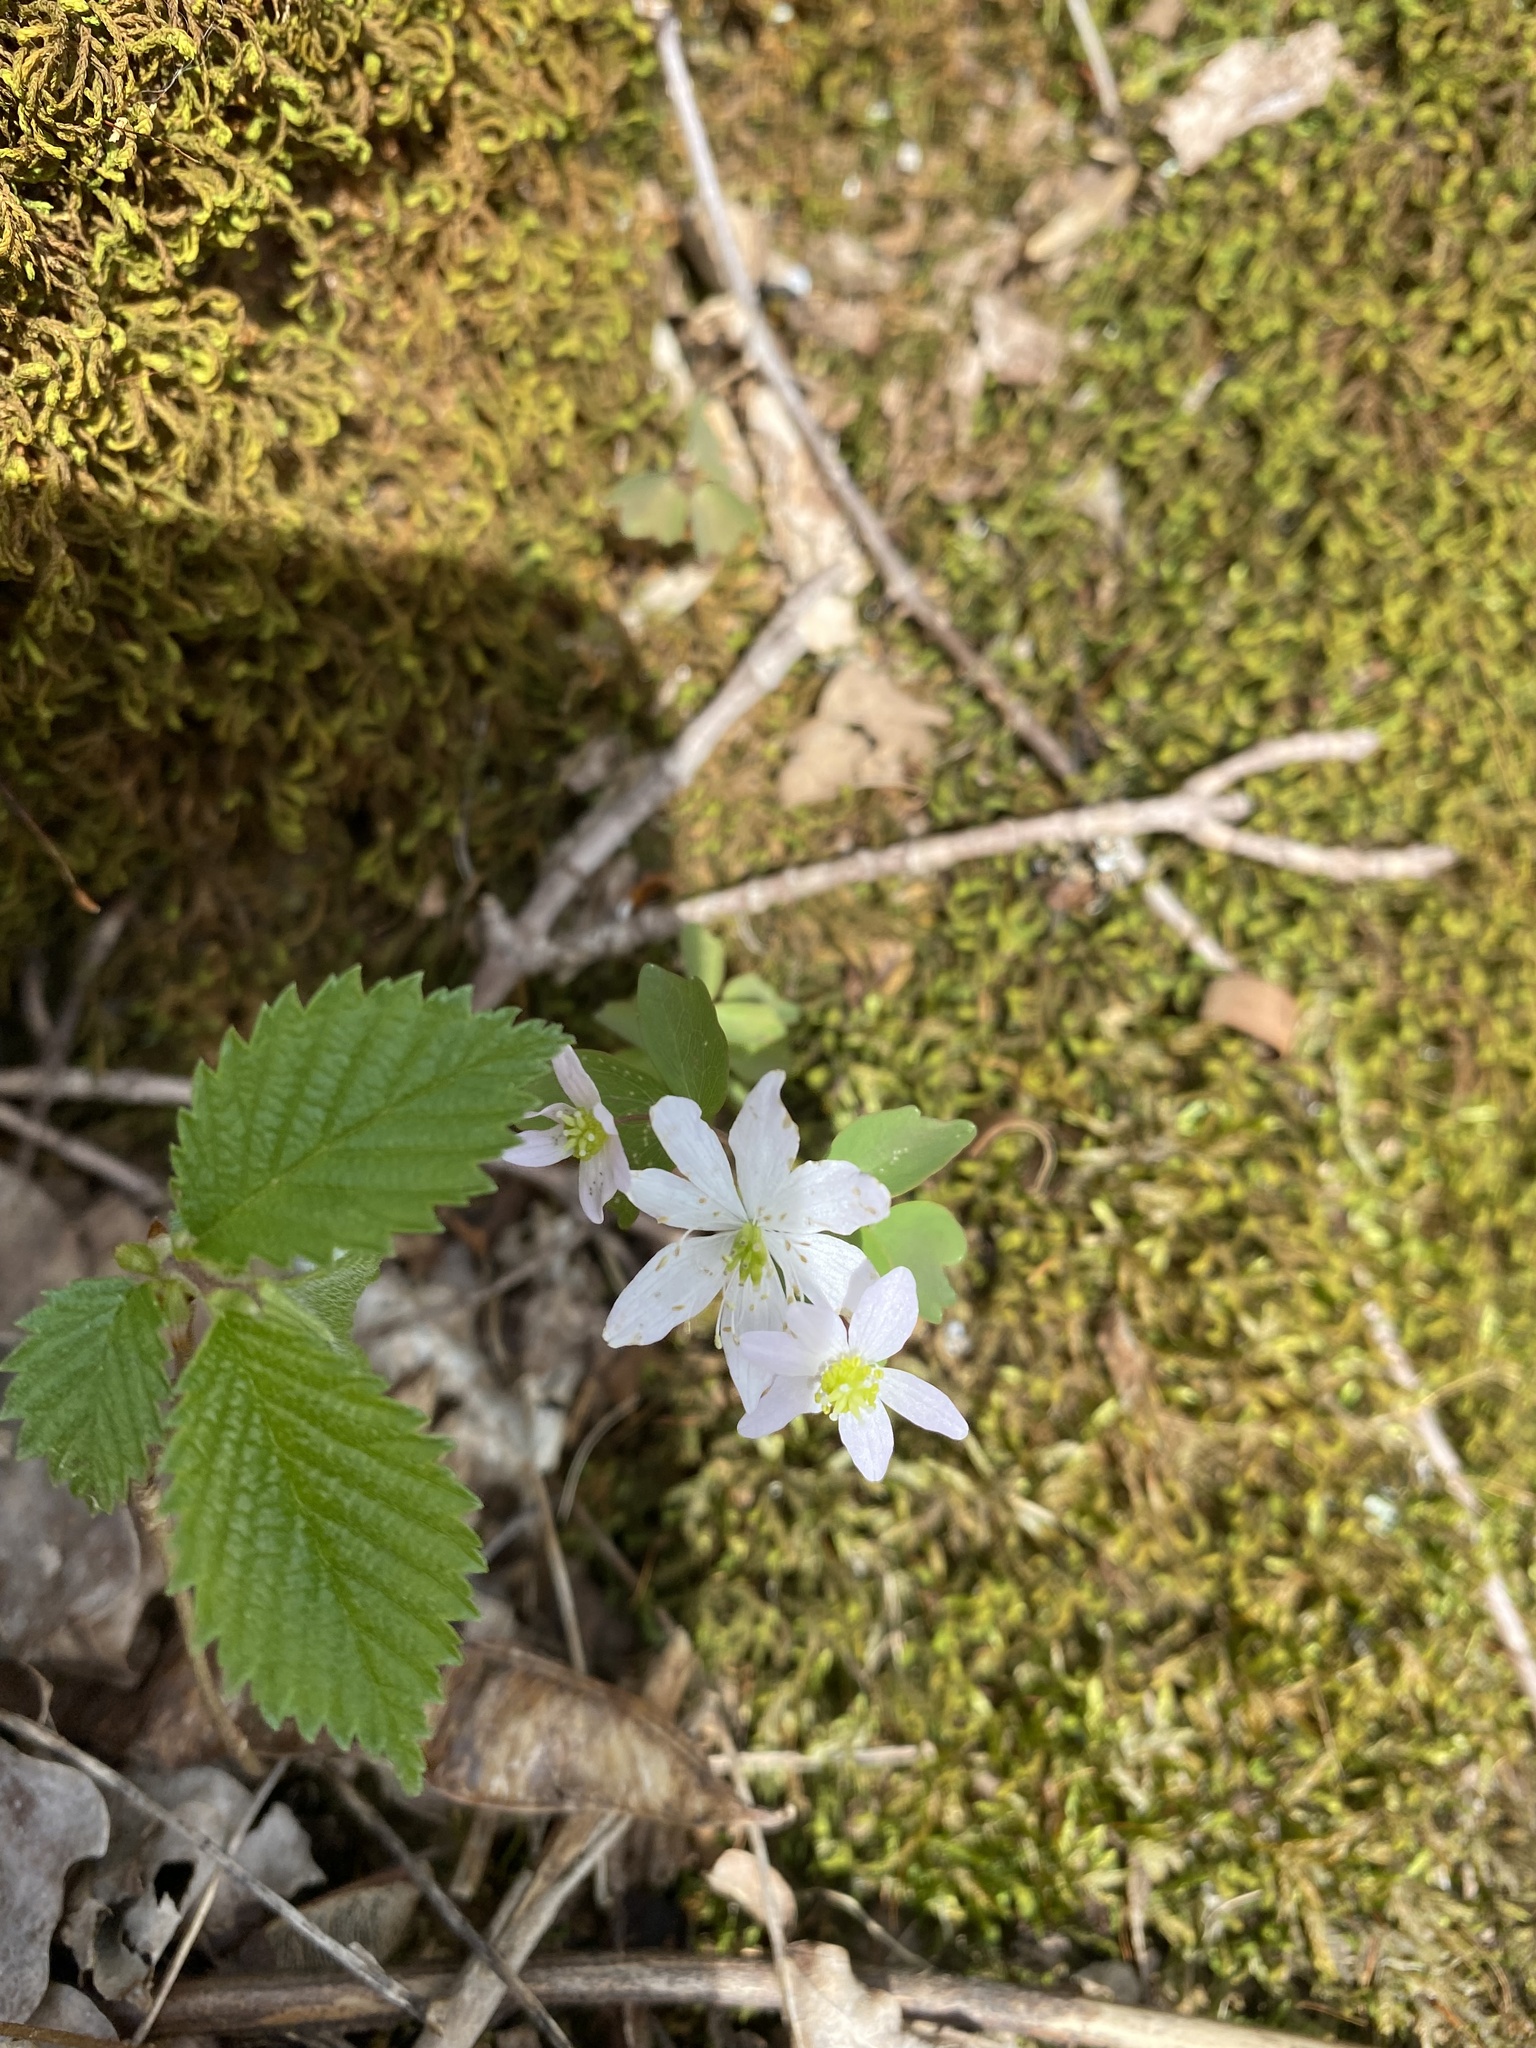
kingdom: Plantae
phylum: Tracheophyta
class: Magnoliopsida
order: Ranunculales
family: Ranunculaceae
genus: Thalictrum
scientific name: Thalictrum thalictroides
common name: Rue-anemone
